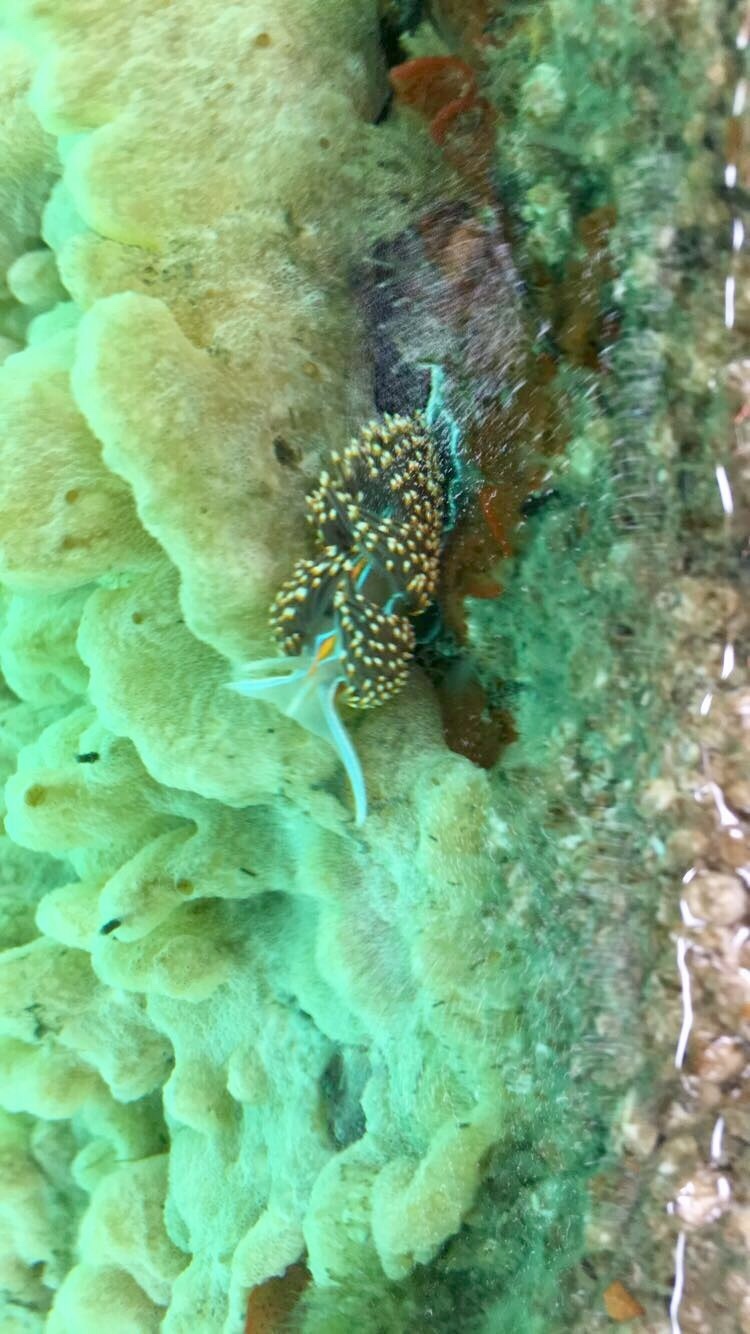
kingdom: Animalia
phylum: Mollusca
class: Gastropoda
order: Nudibranchia
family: Myrrhinidae
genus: Hermissenda
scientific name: Hermissenda opalescens
